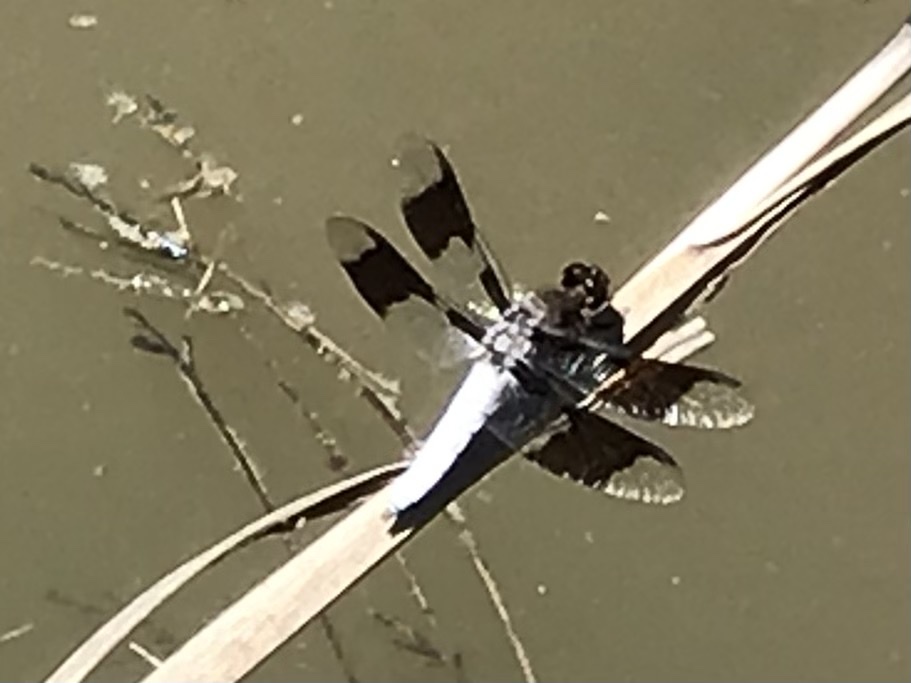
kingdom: Animalia
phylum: Arthropoda
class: Insecta
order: Odonata
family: Libellulidae
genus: Plathemis
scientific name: Plathemis lydia
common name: Common whitetail
